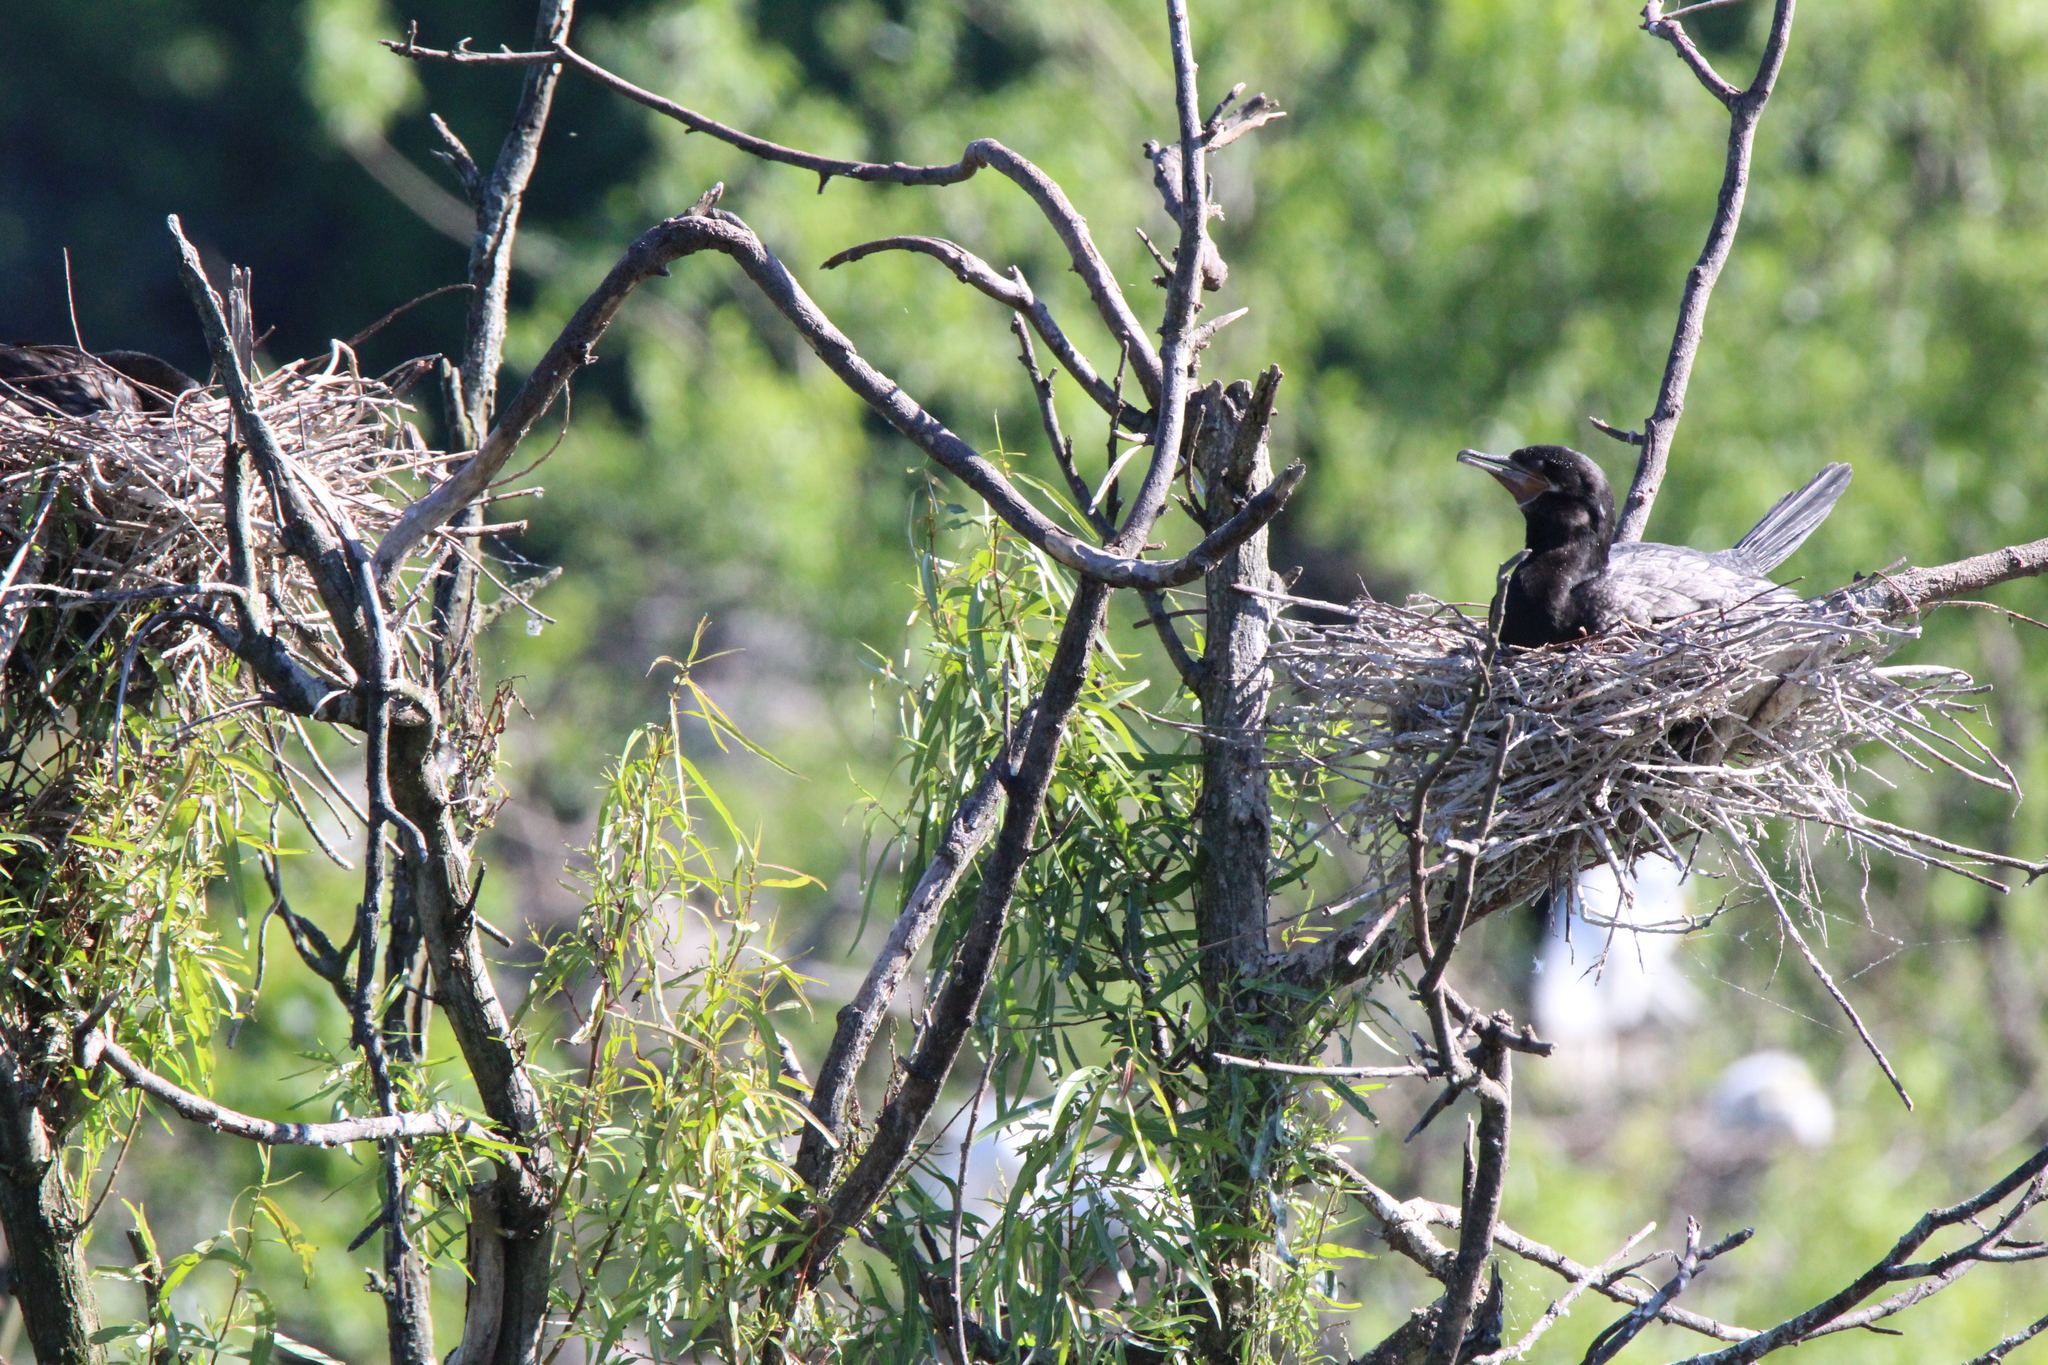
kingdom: Animalia
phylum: Chordata
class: Aves
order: Suliformes
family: Phalacrocoracidae
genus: Phalacrocorax
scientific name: Phalacrocorax brasilianus
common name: Neotropic cormorant
